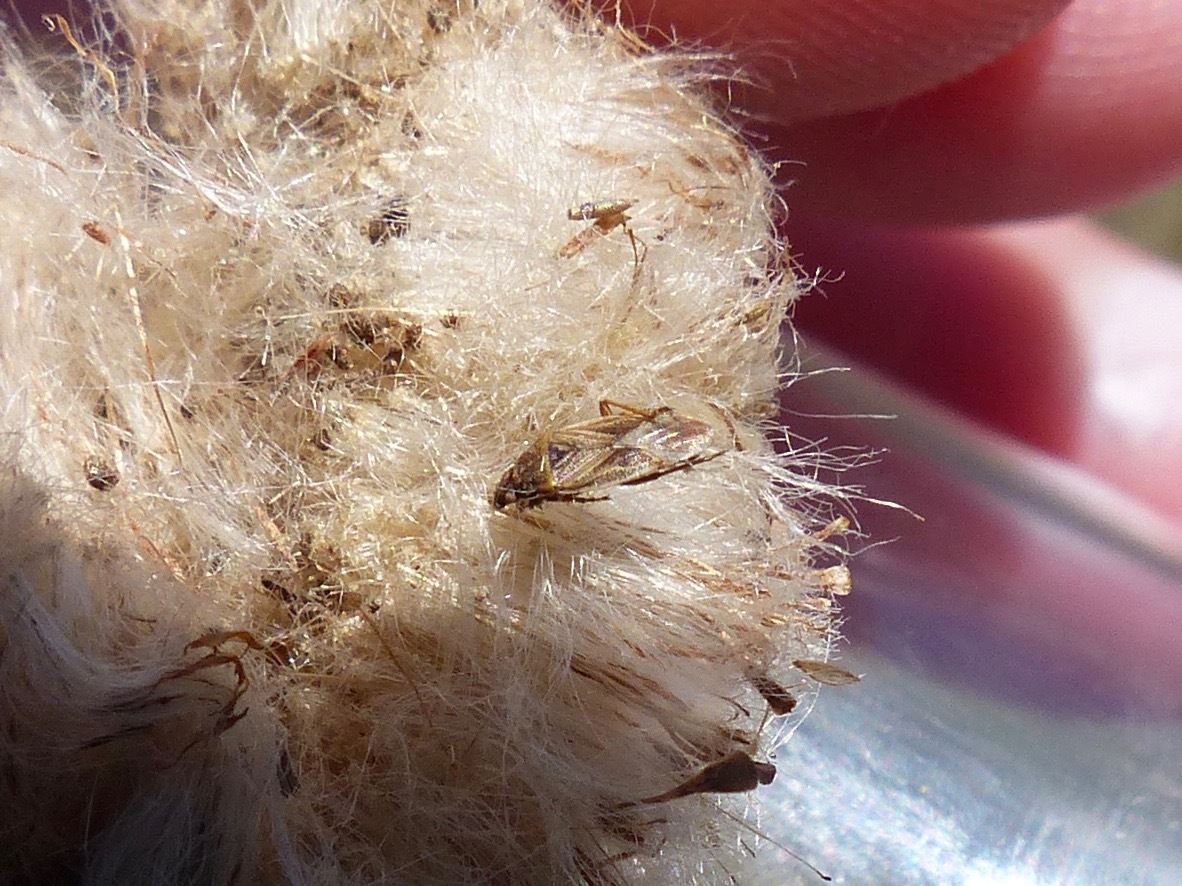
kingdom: Animalia
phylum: Arthropoda
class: Insecta
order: Hemiptera
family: Artheneidae
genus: Chilacis
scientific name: Chilacis typhae
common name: Cattail bug
